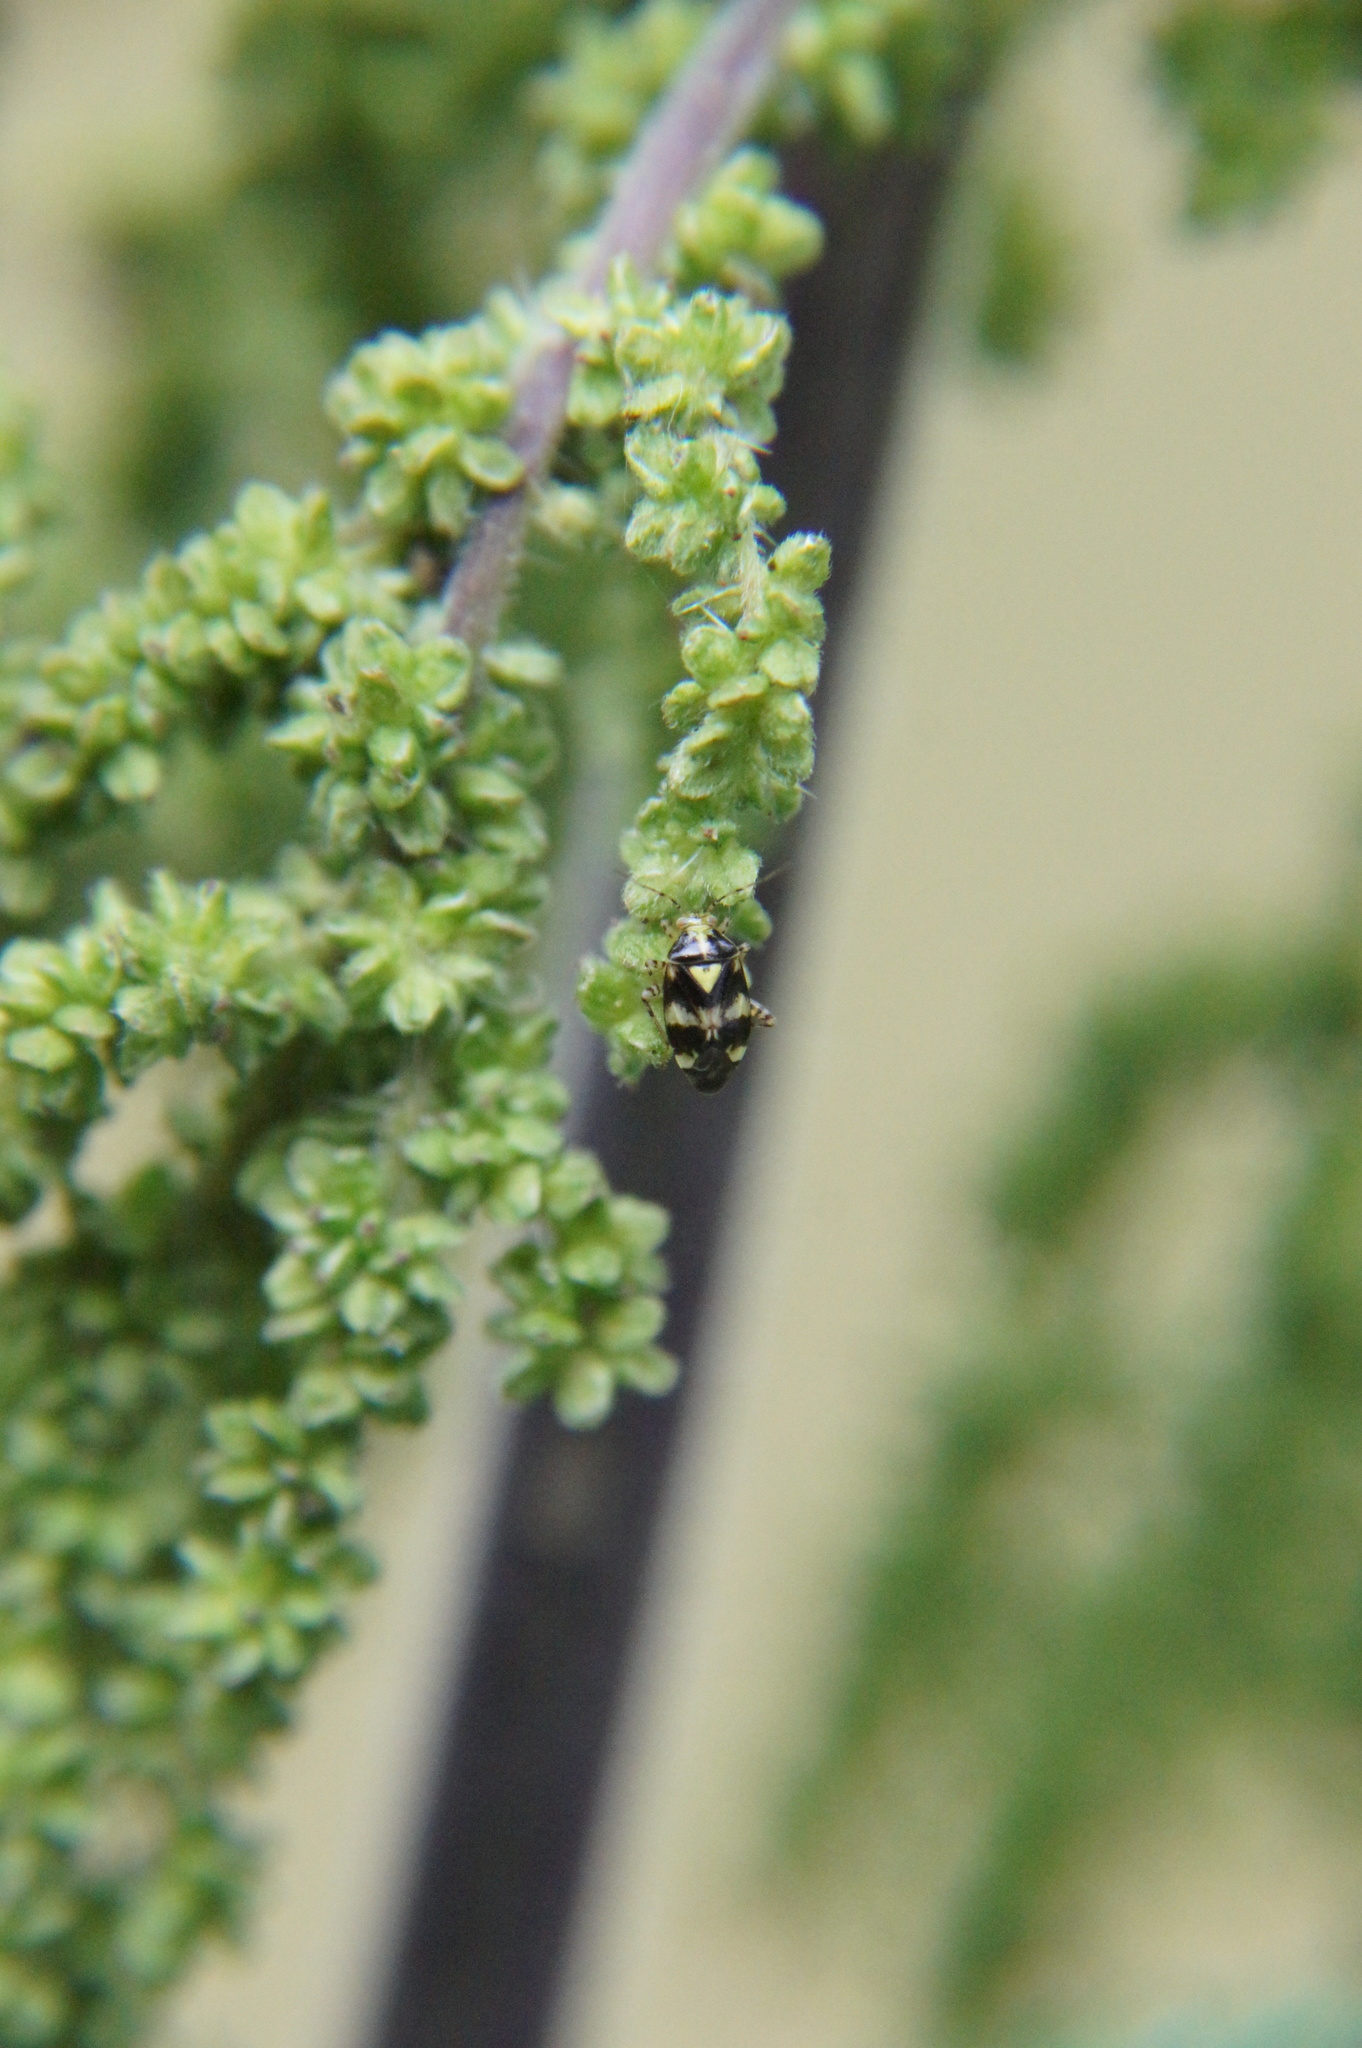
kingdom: Animalia
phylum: Arthropoda
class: Insecta
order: Hemiptera
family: Miridae
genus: Liocoris
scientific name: Liocoris tripustulatus
